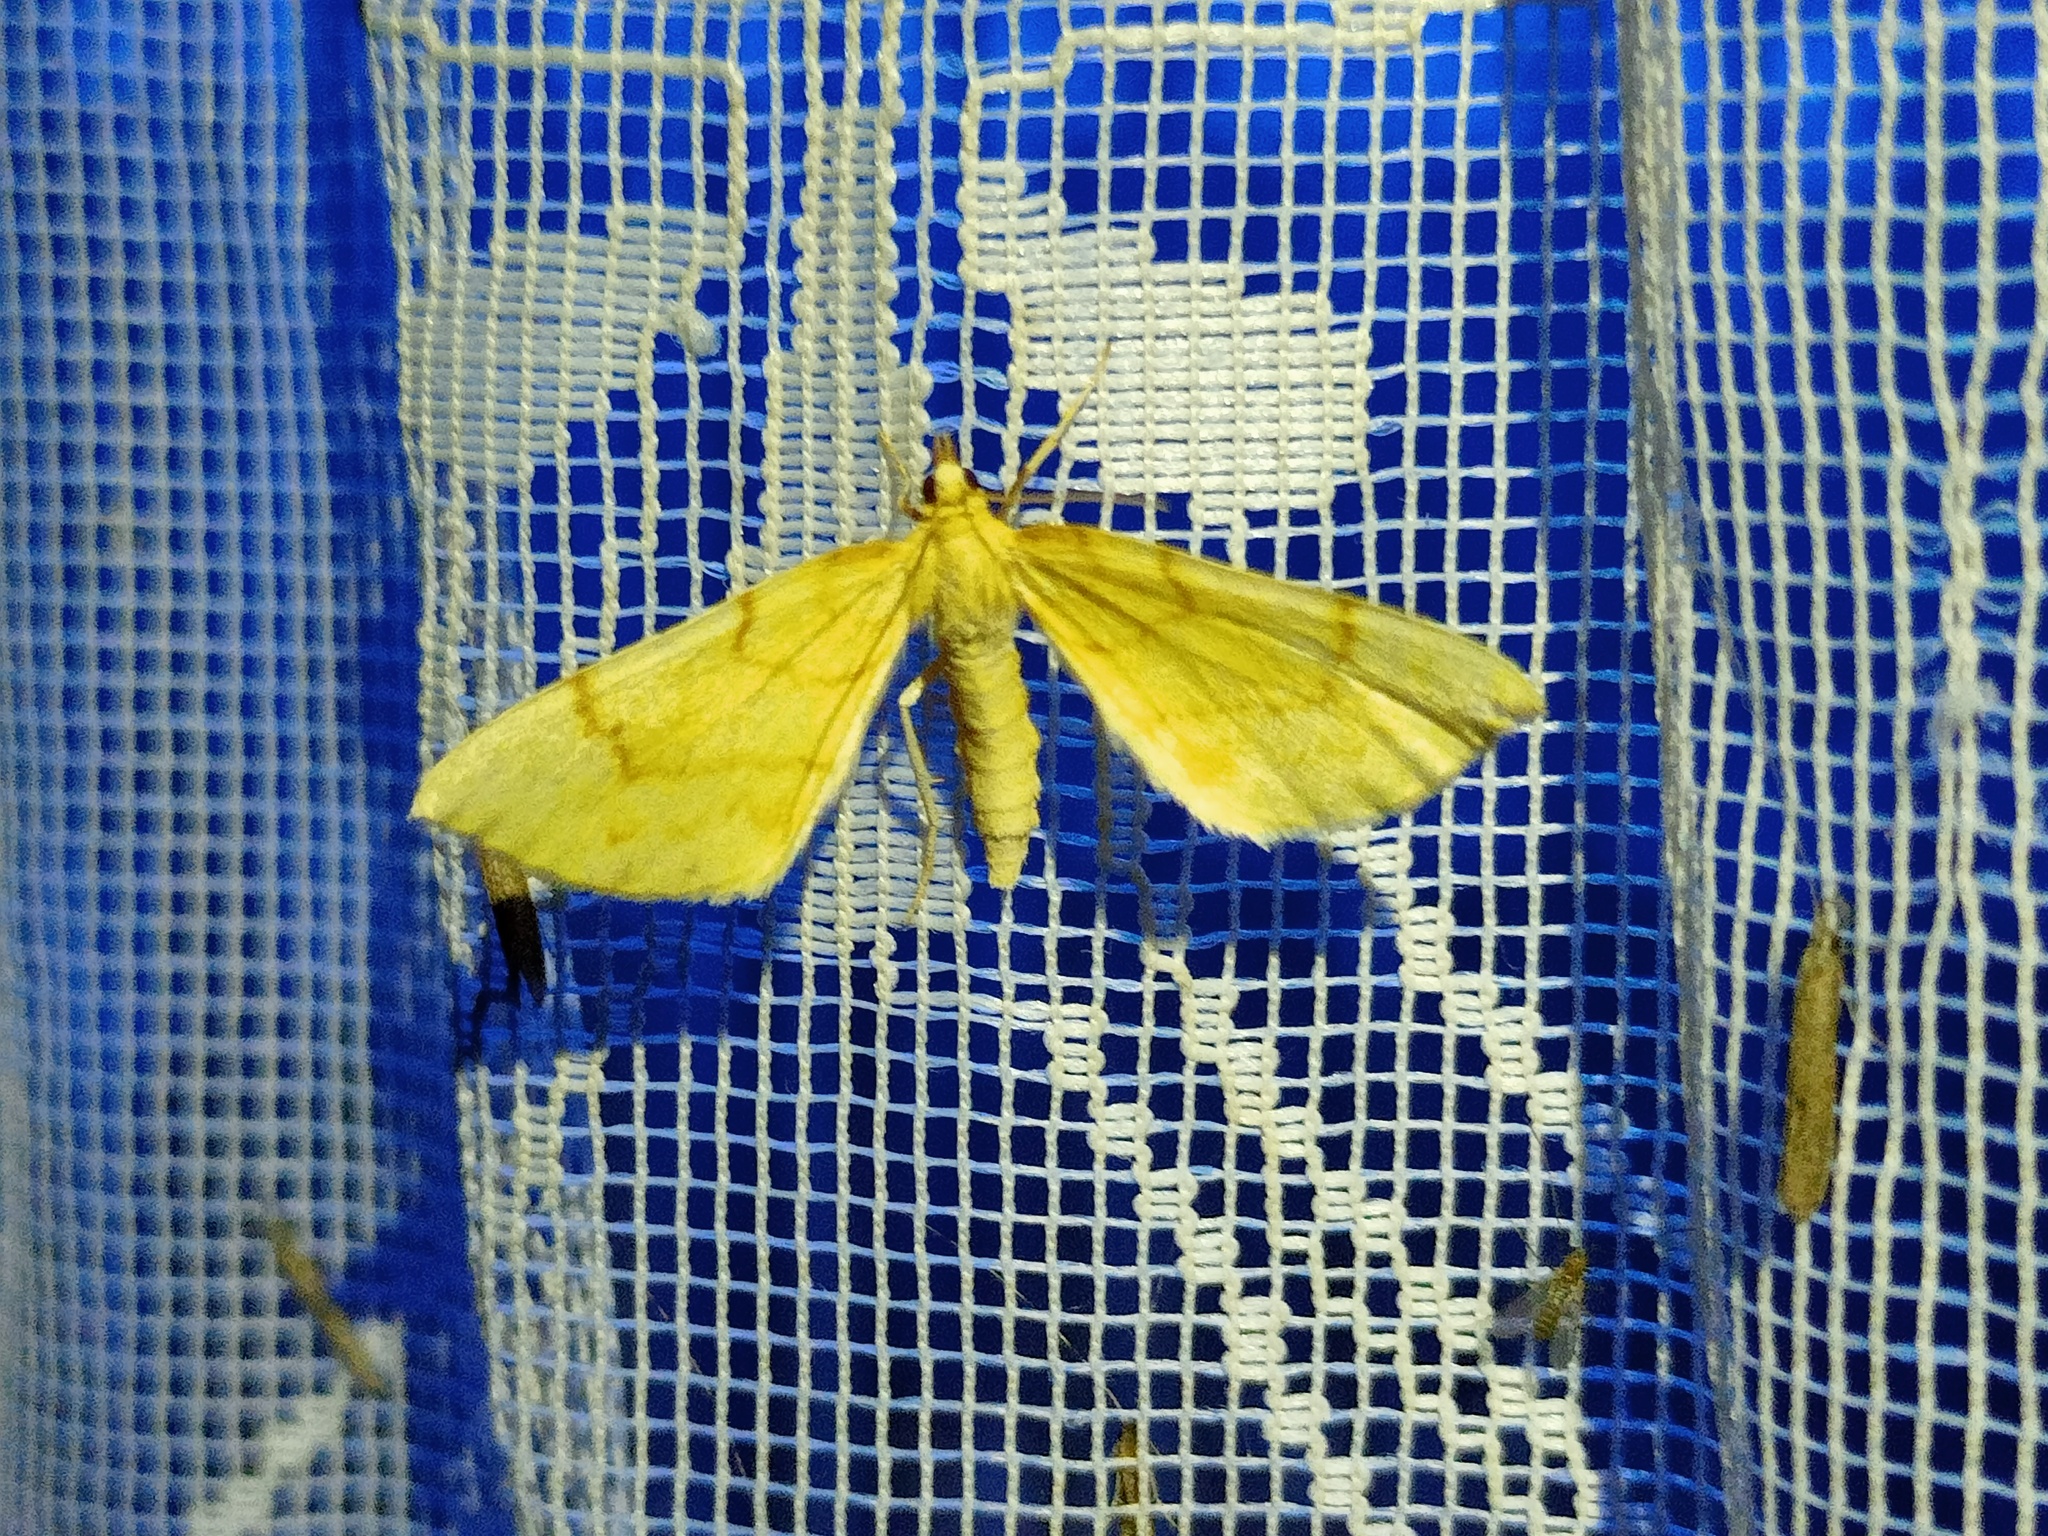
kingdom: Animalia
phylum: Arthropoda
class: Insecta
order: Lepidoptera
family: Geometridae
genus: Eulithis
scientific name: Eulithis pyraliata
